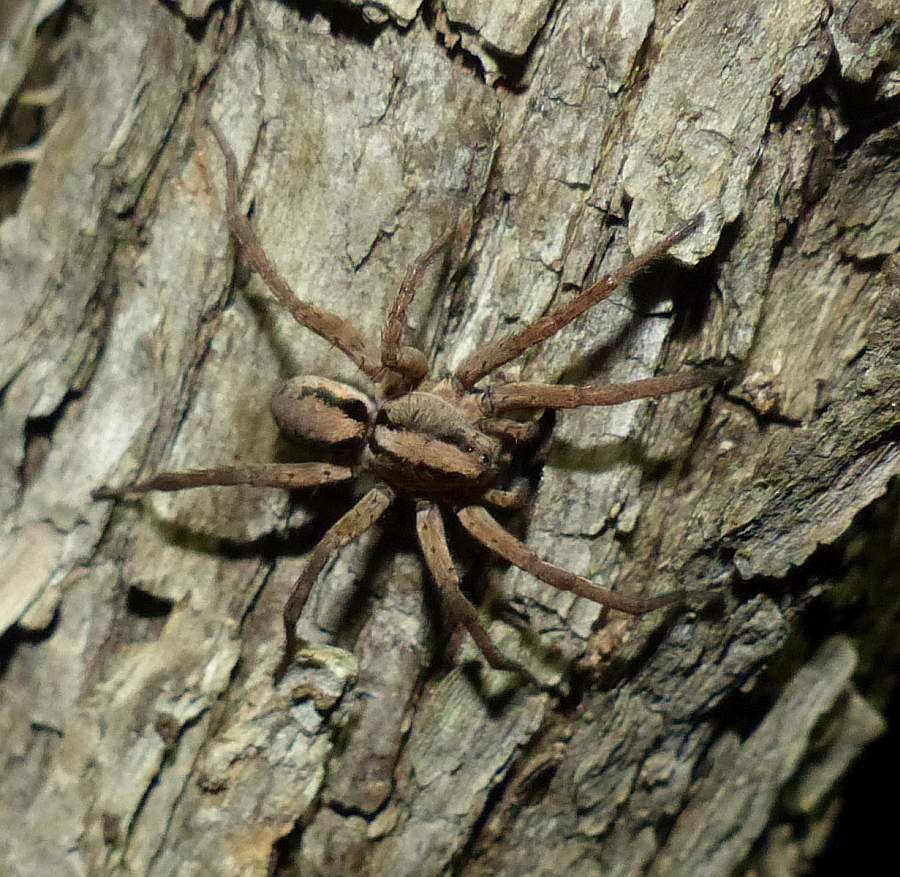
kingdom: Animalia
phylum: Arthropoda
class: Arachnida
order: Araneae
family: Lycosidae
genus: Gladicosa
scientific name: Gladicosa gulosa
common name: Drumming sword wolf spider
